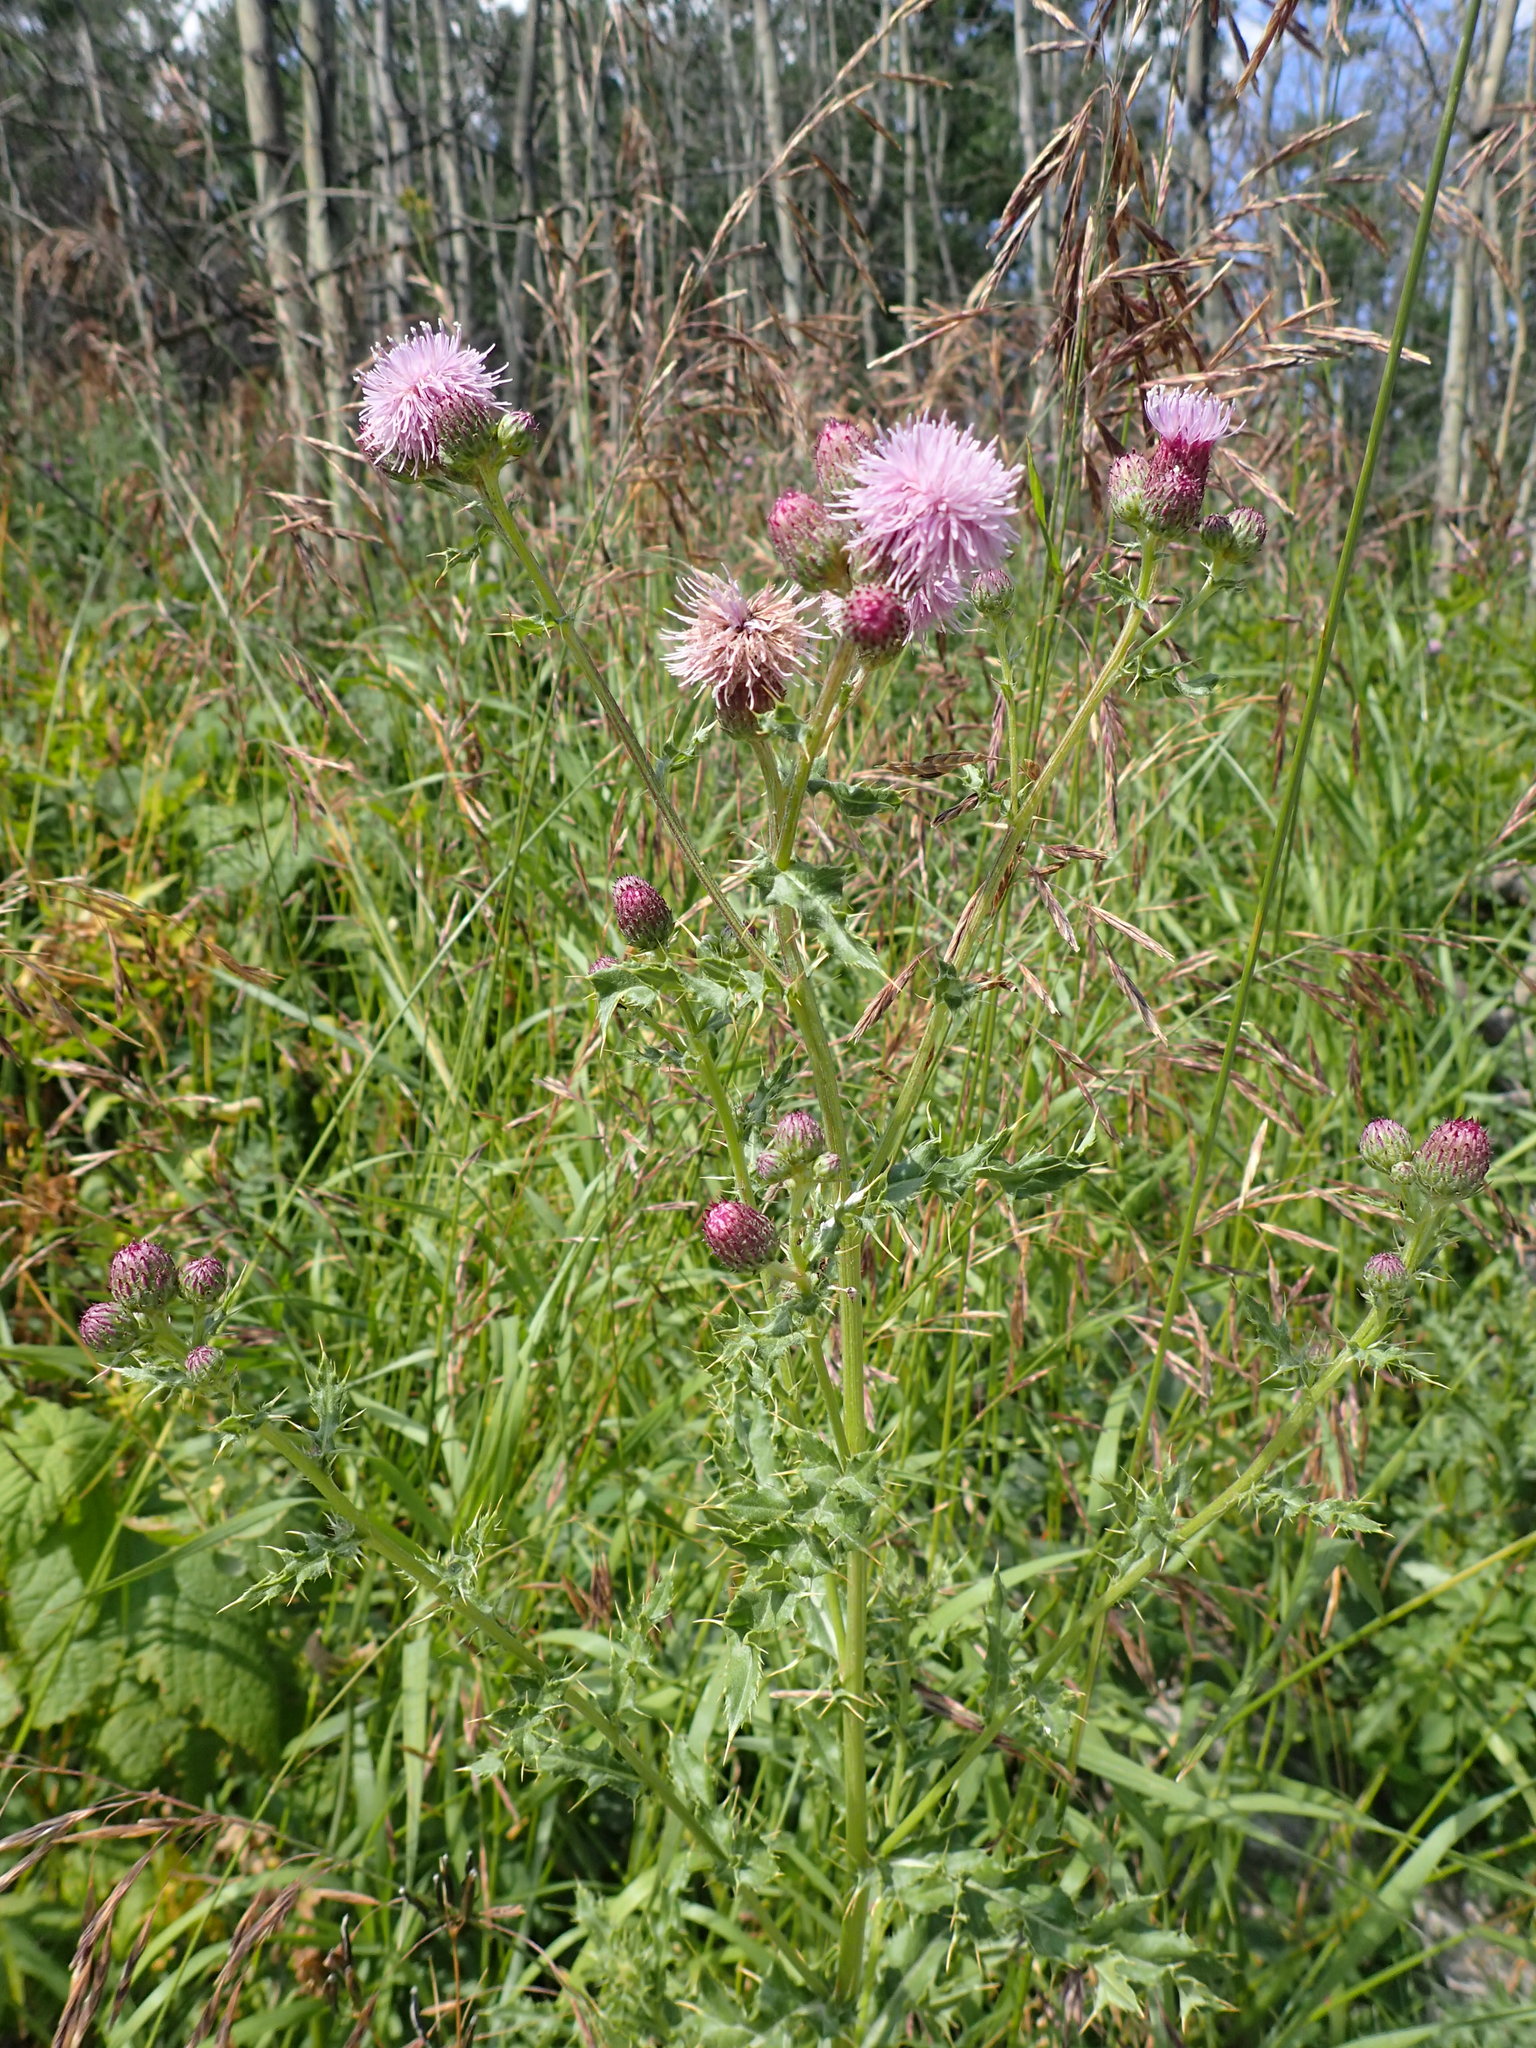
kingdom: Plantae
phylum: Tracheophyta
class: Magnoliopsida
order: Asterales
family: Asteraceae
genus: Cirsium
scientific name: Cirsium arvense
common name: Creeping thistle
